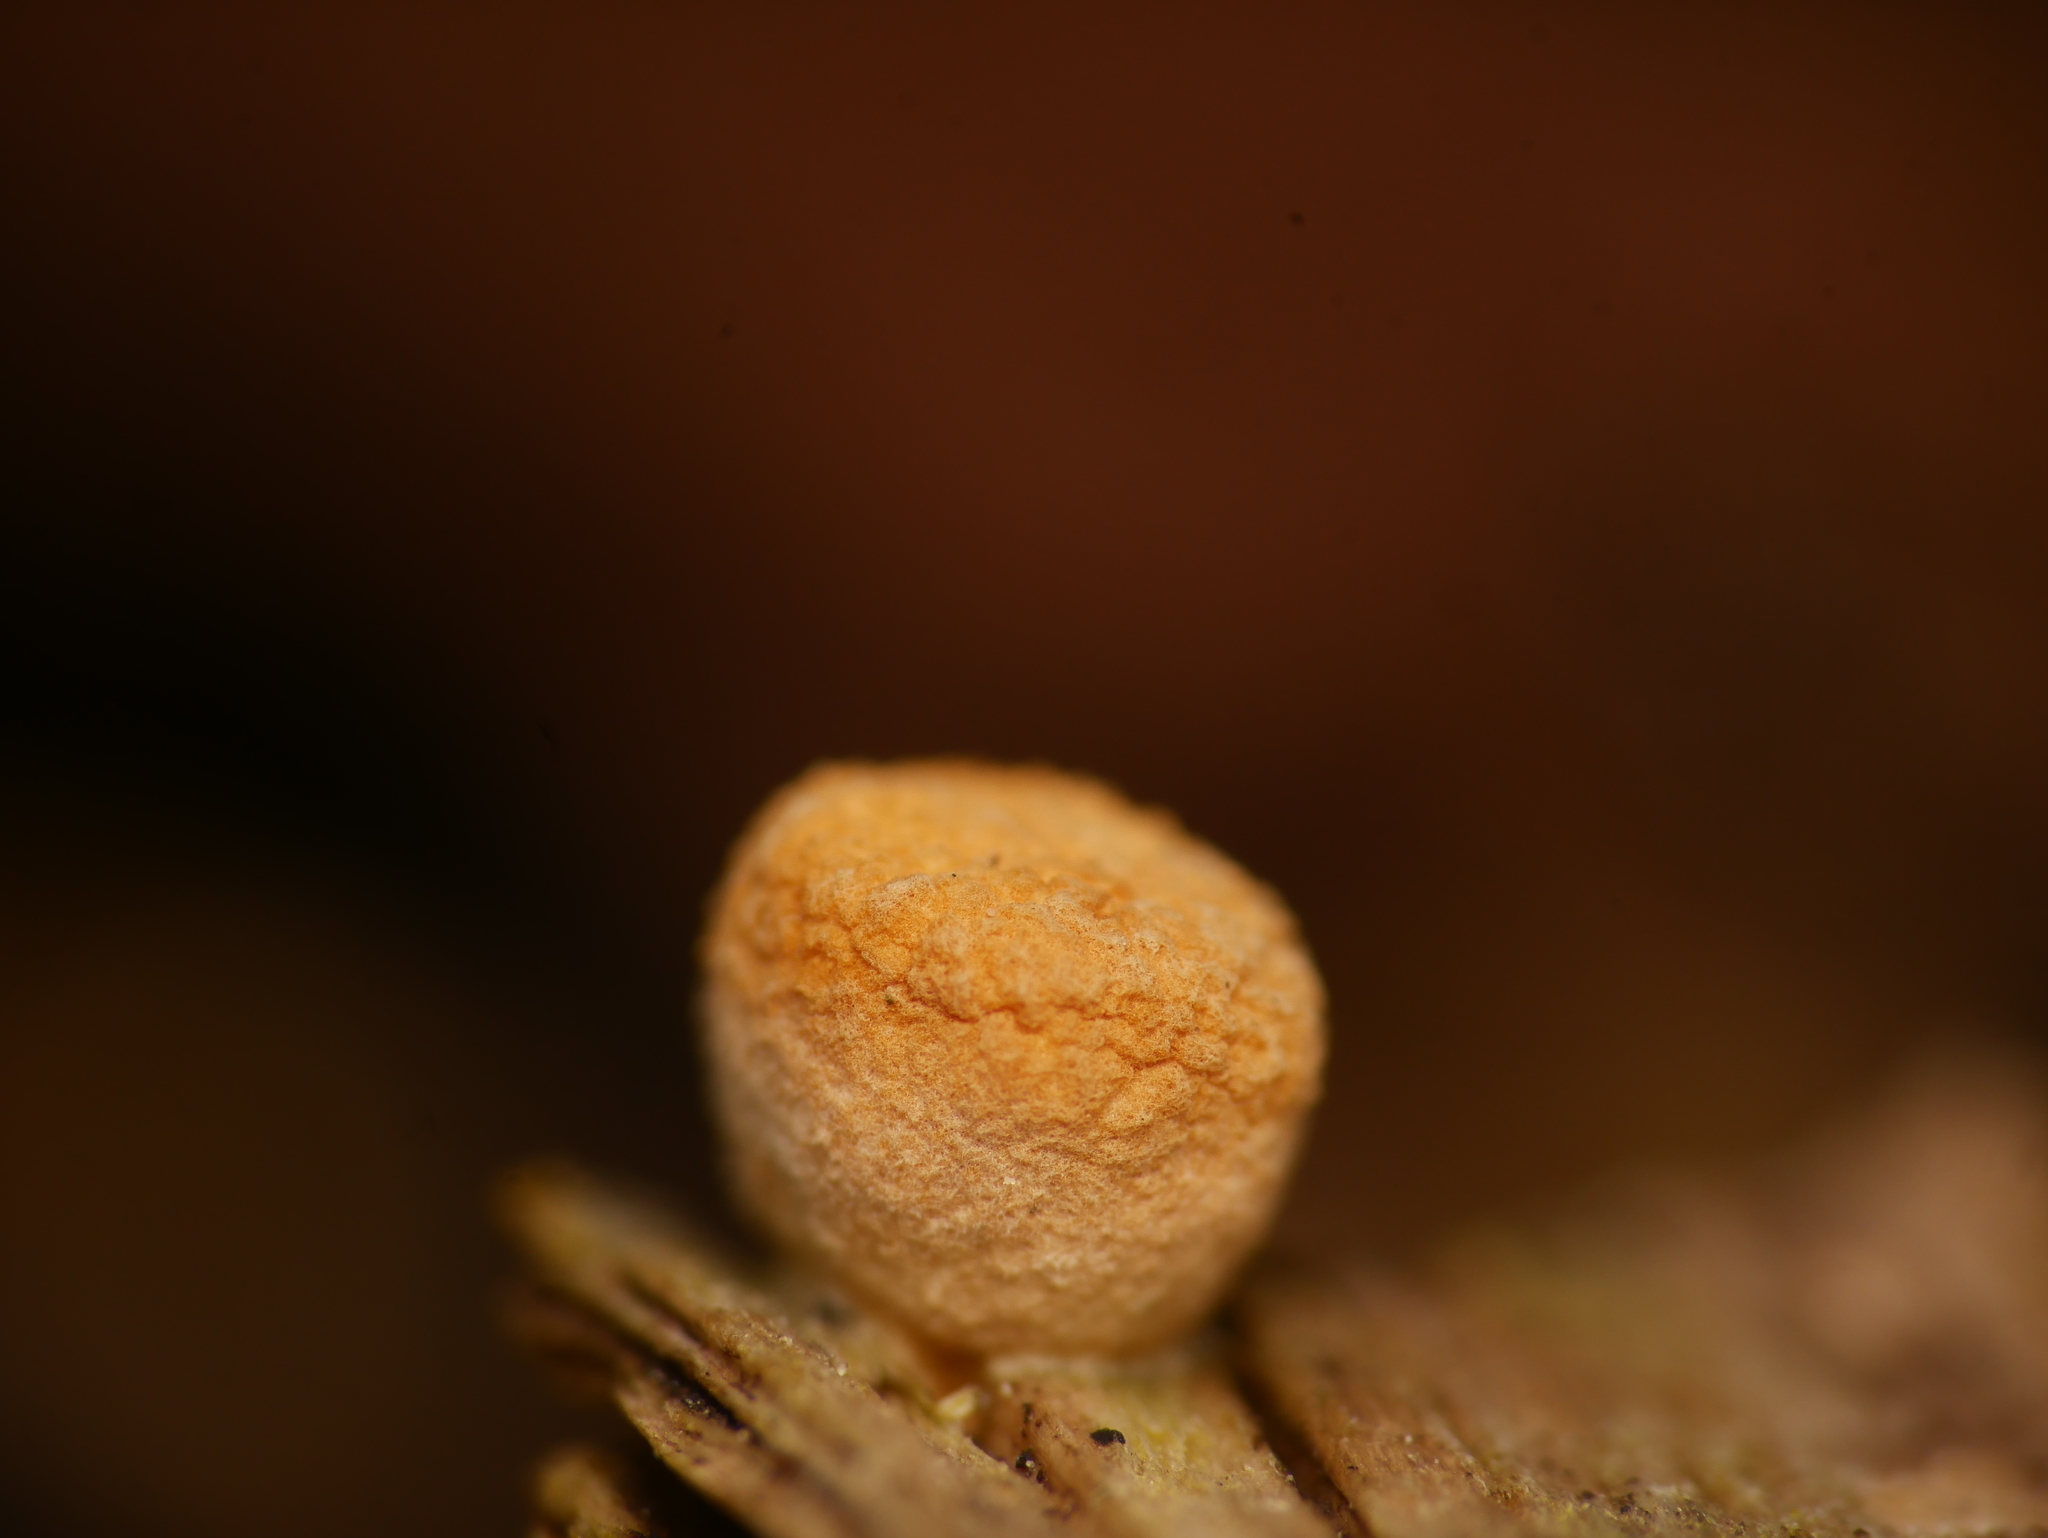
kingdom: Fungi
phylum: Basidiomycota
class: Agaricomycetes
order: Agaricales
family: Nidulariaceae
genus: Crucibulum
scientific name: Crucibulum laeve
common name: Common bird's nest
